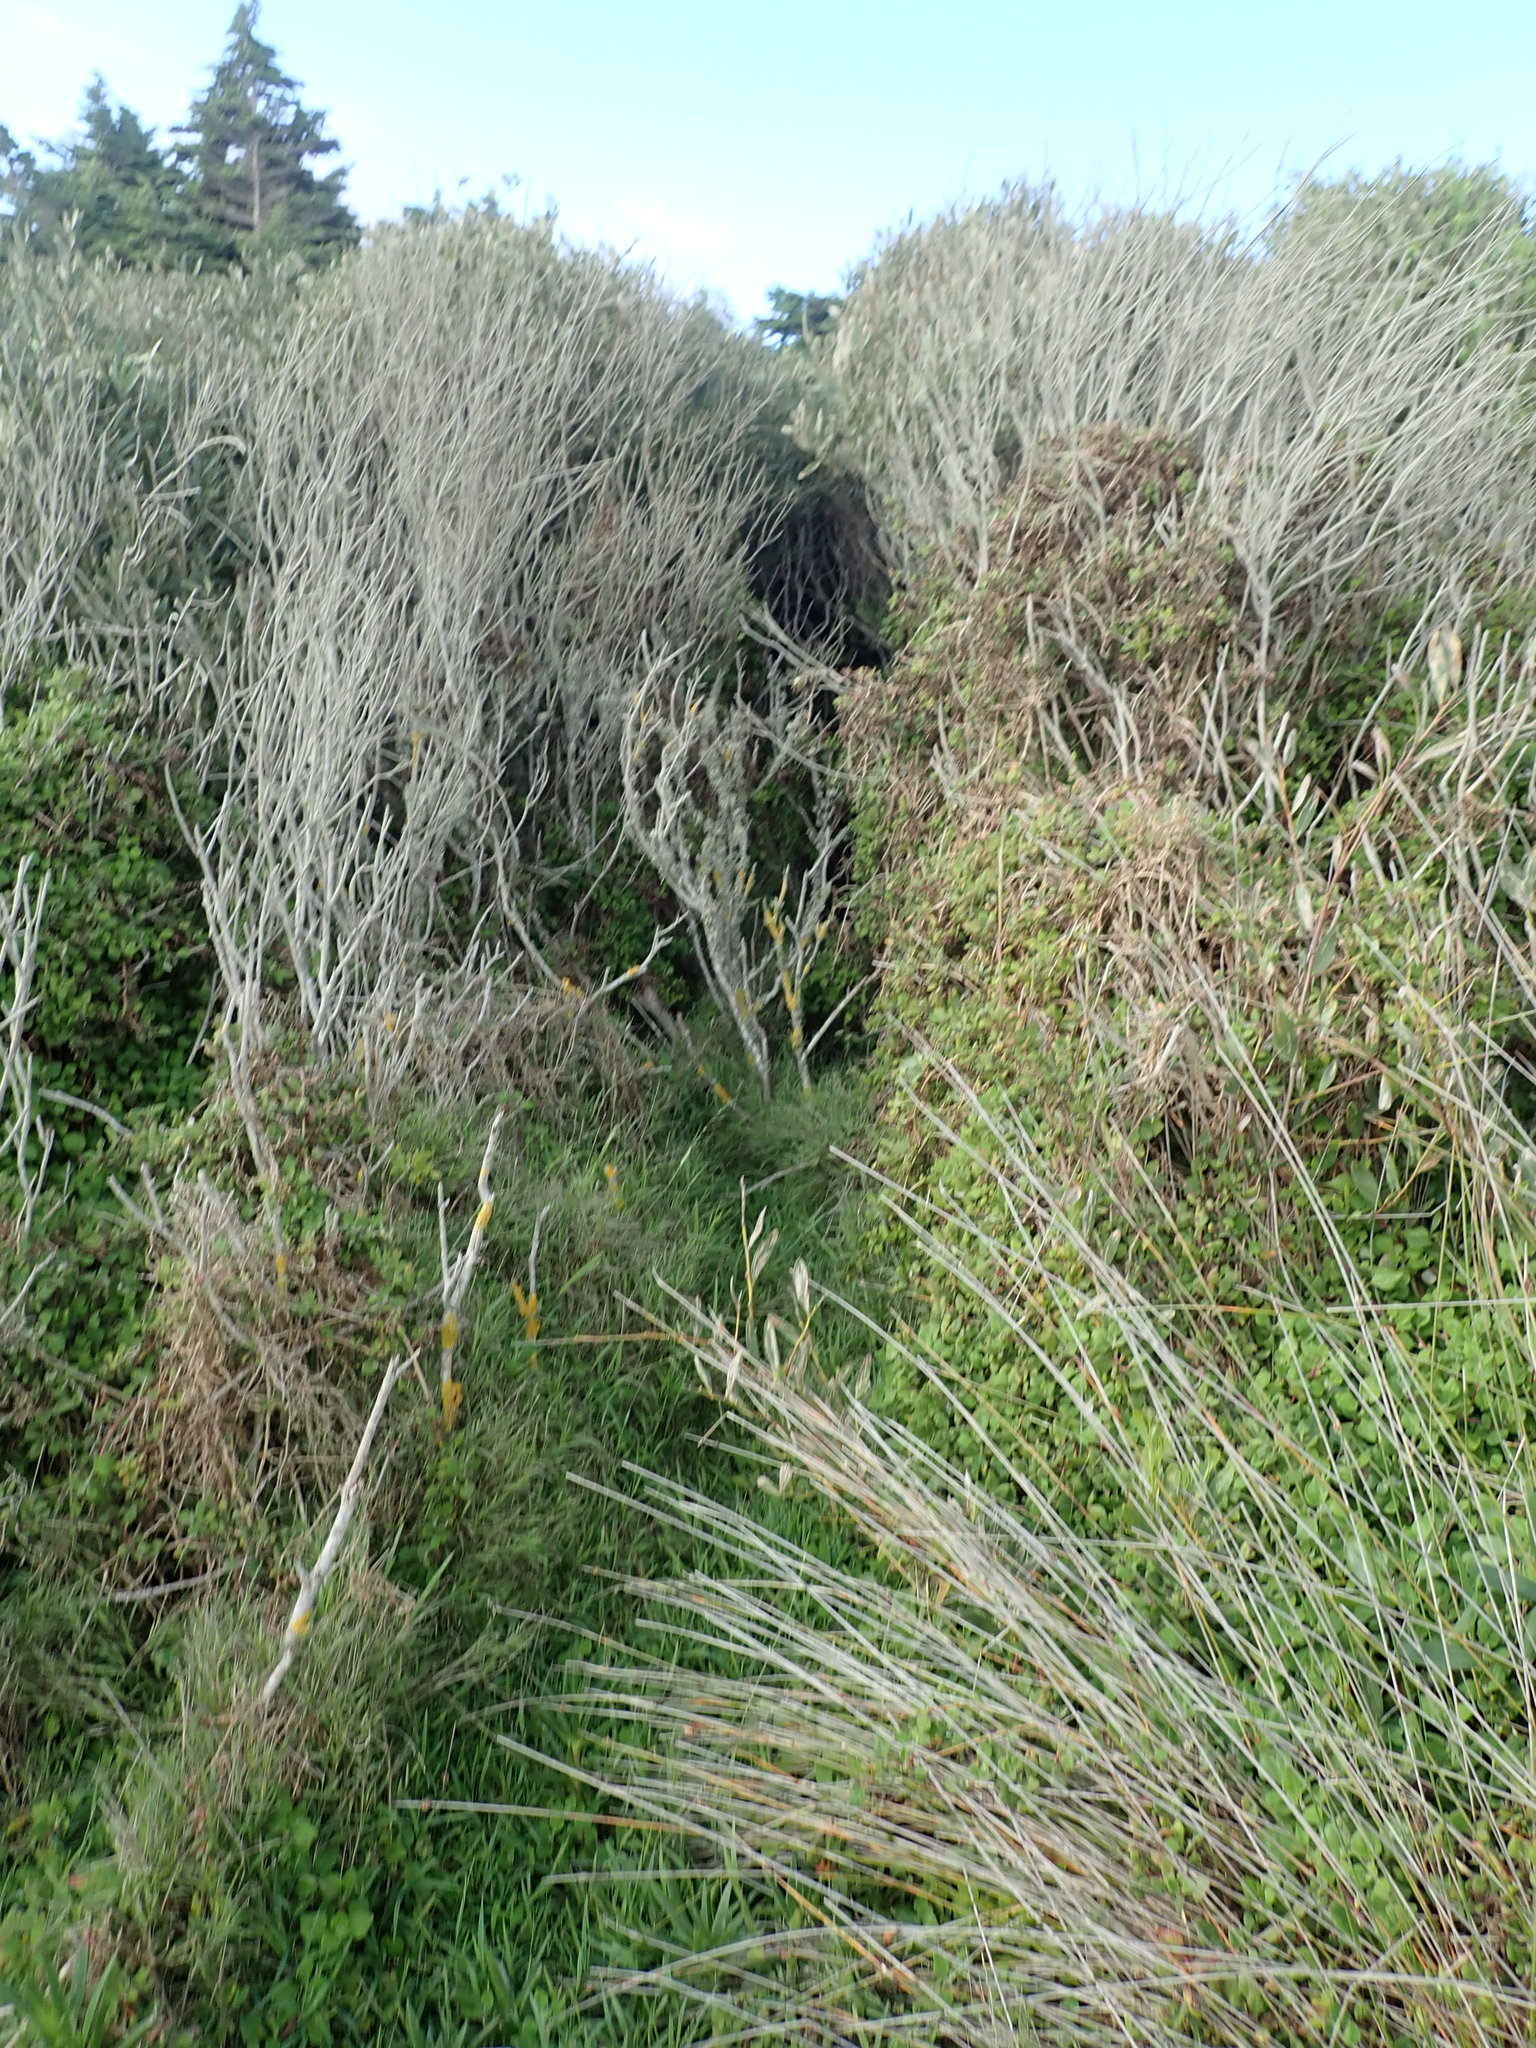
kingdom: Plantae
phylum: Tracheophyta
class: Magnoliopsida
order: Caryophyllales
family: Aizoaceae
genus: Tetragonia
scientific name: Tetragonia implexicoma
